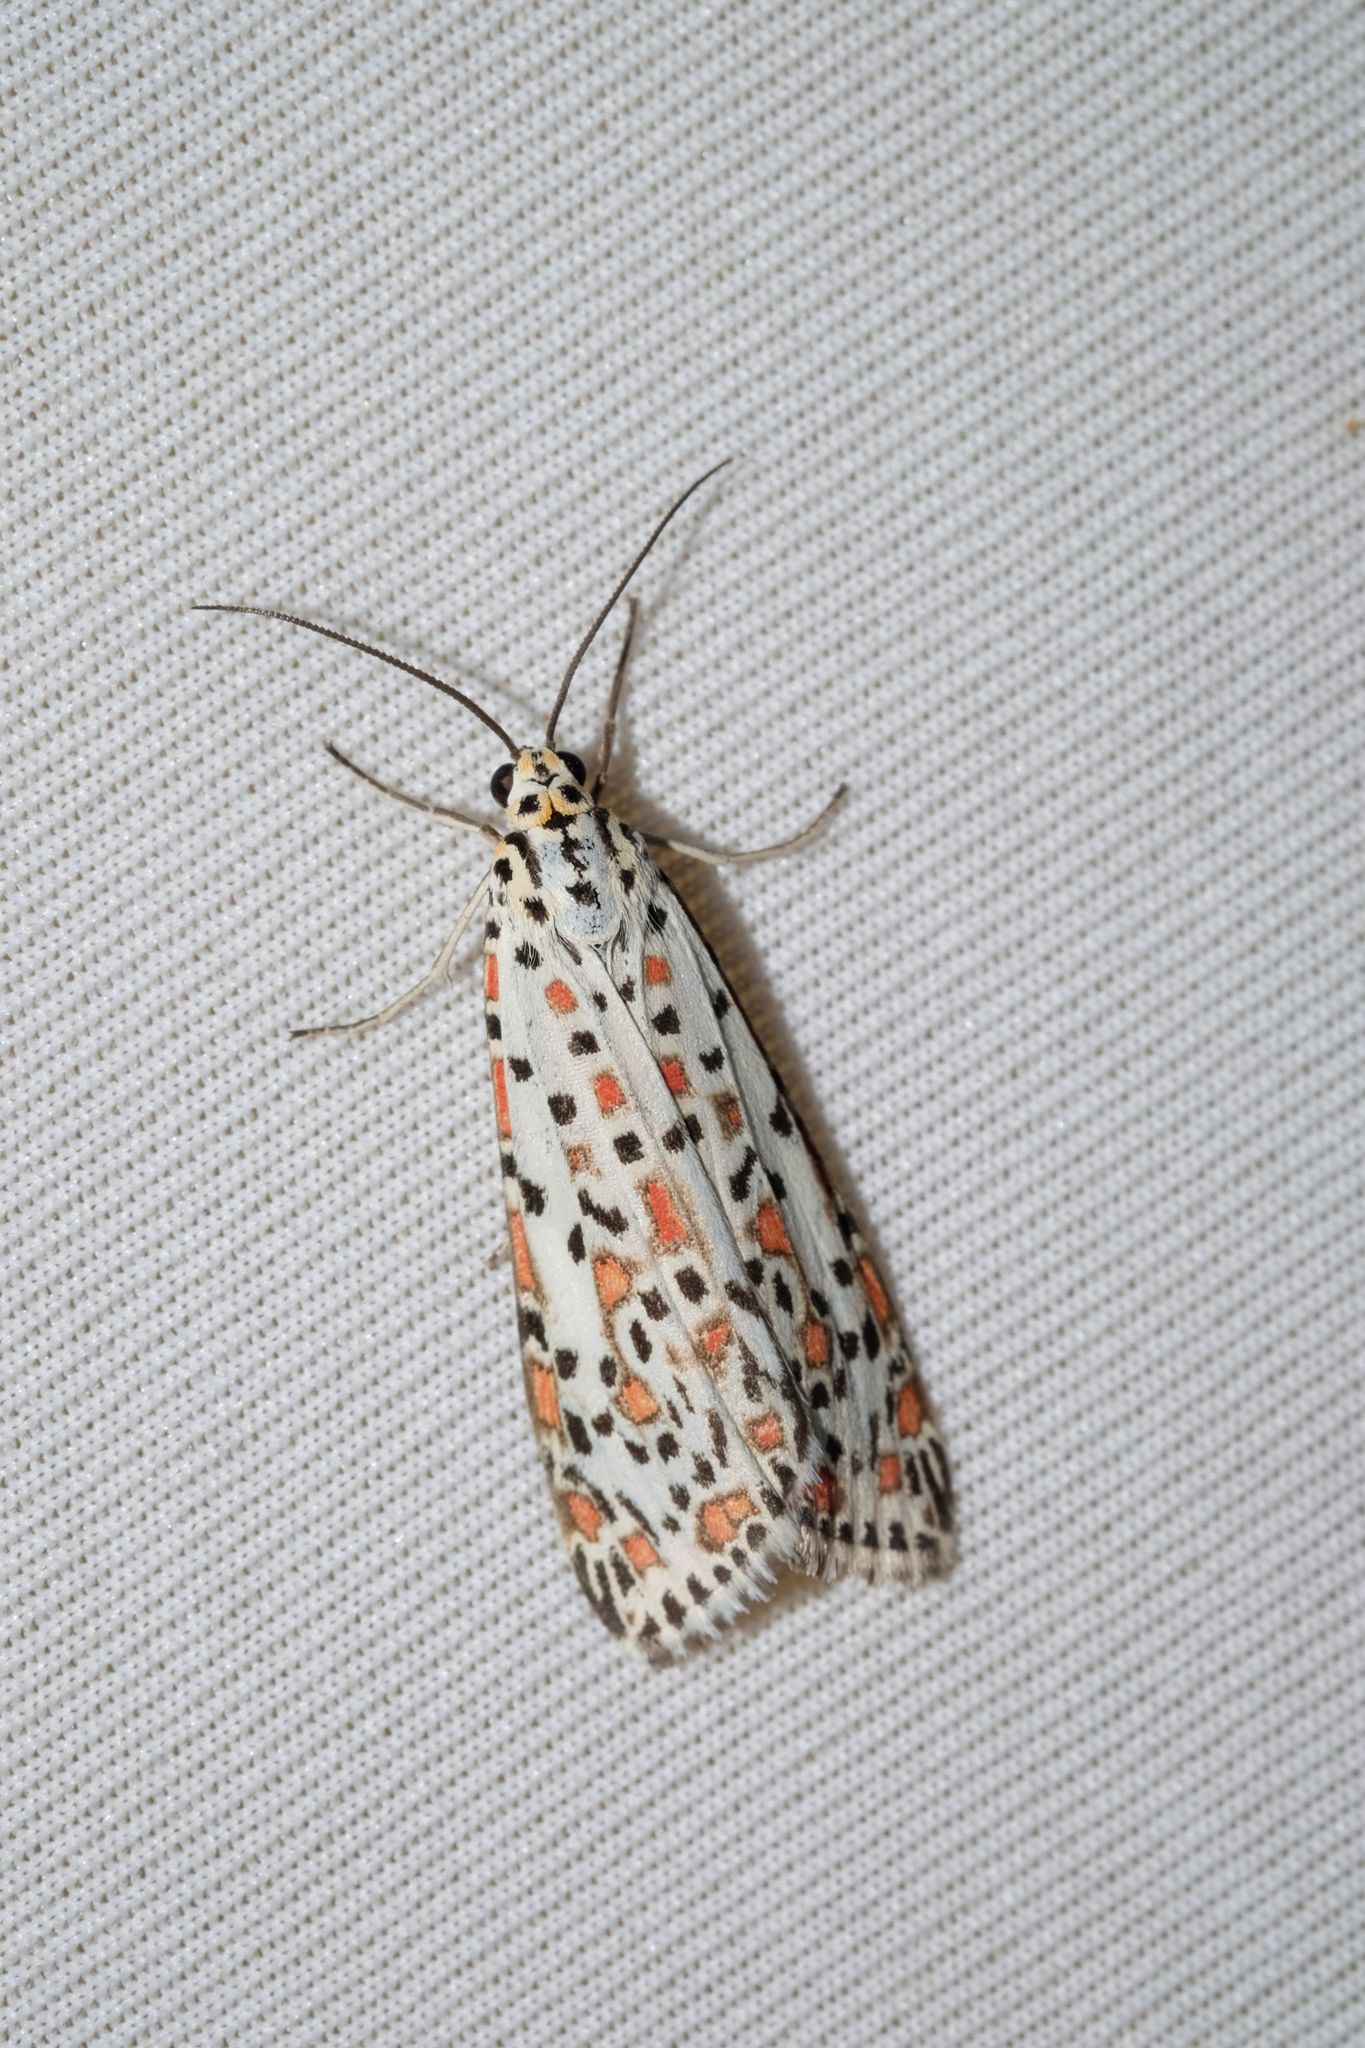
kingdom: Animalia
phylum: Arthropoda
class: Insecta
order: Lepidoptera
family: Erebidae
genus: Utetheisa
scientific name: Utetheisa pulchelloides
